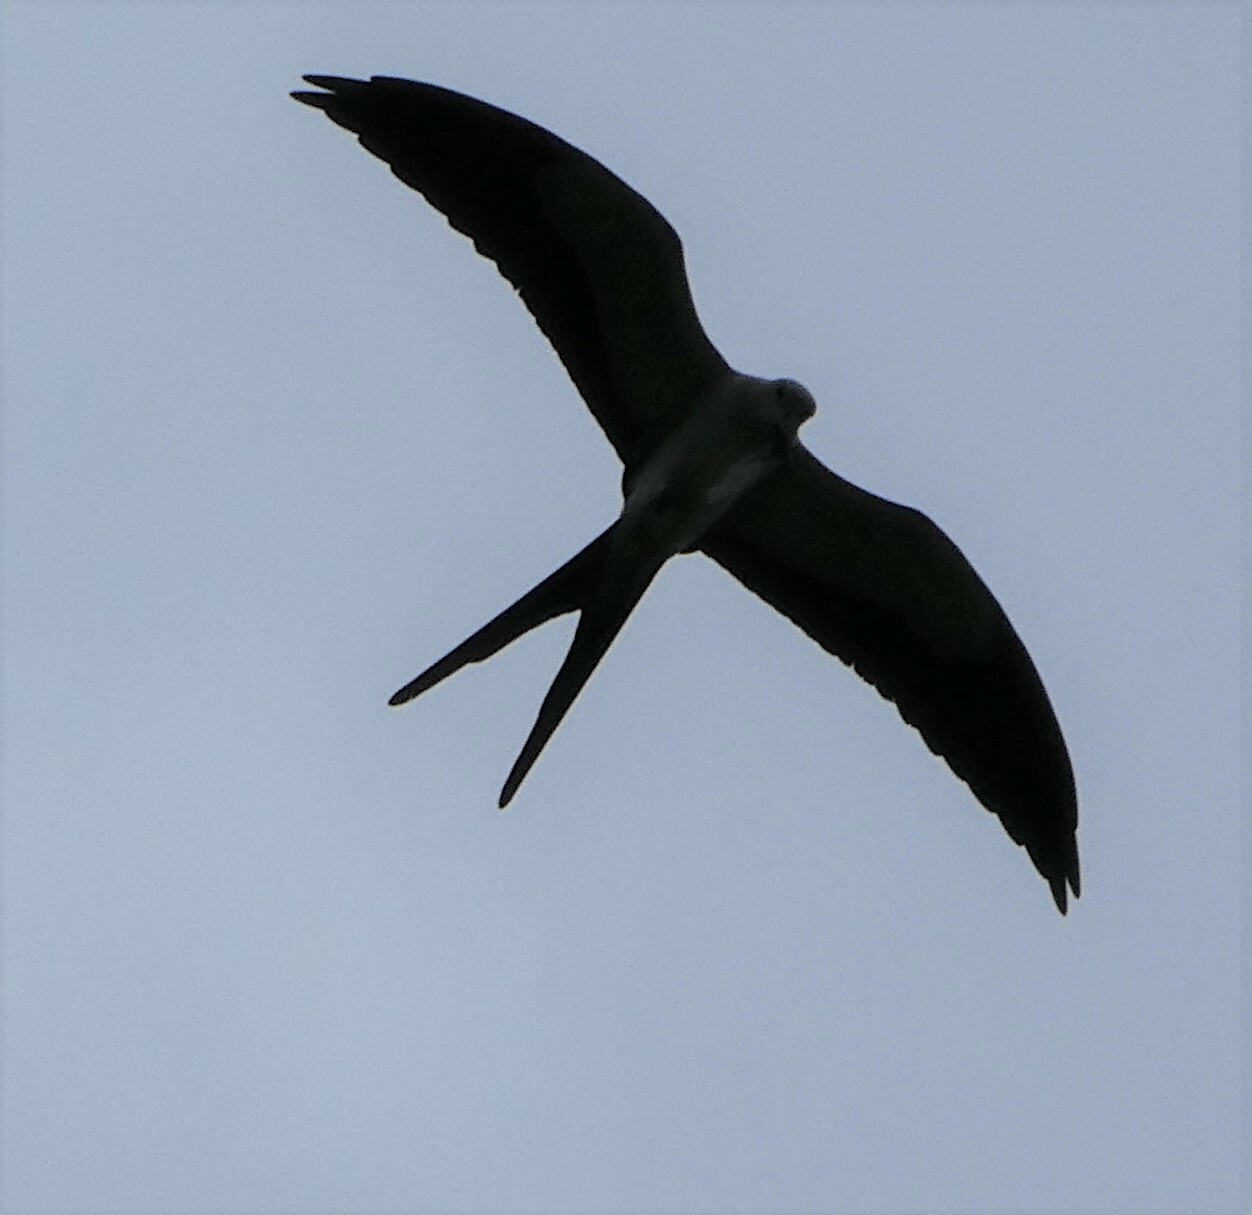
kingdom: Animalia
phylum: Chordata
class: Aves
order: Accipitriformes
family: Accipitridae
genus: Elanoides
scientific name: Elanoides forficatus
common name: Swallow-tailed kite
